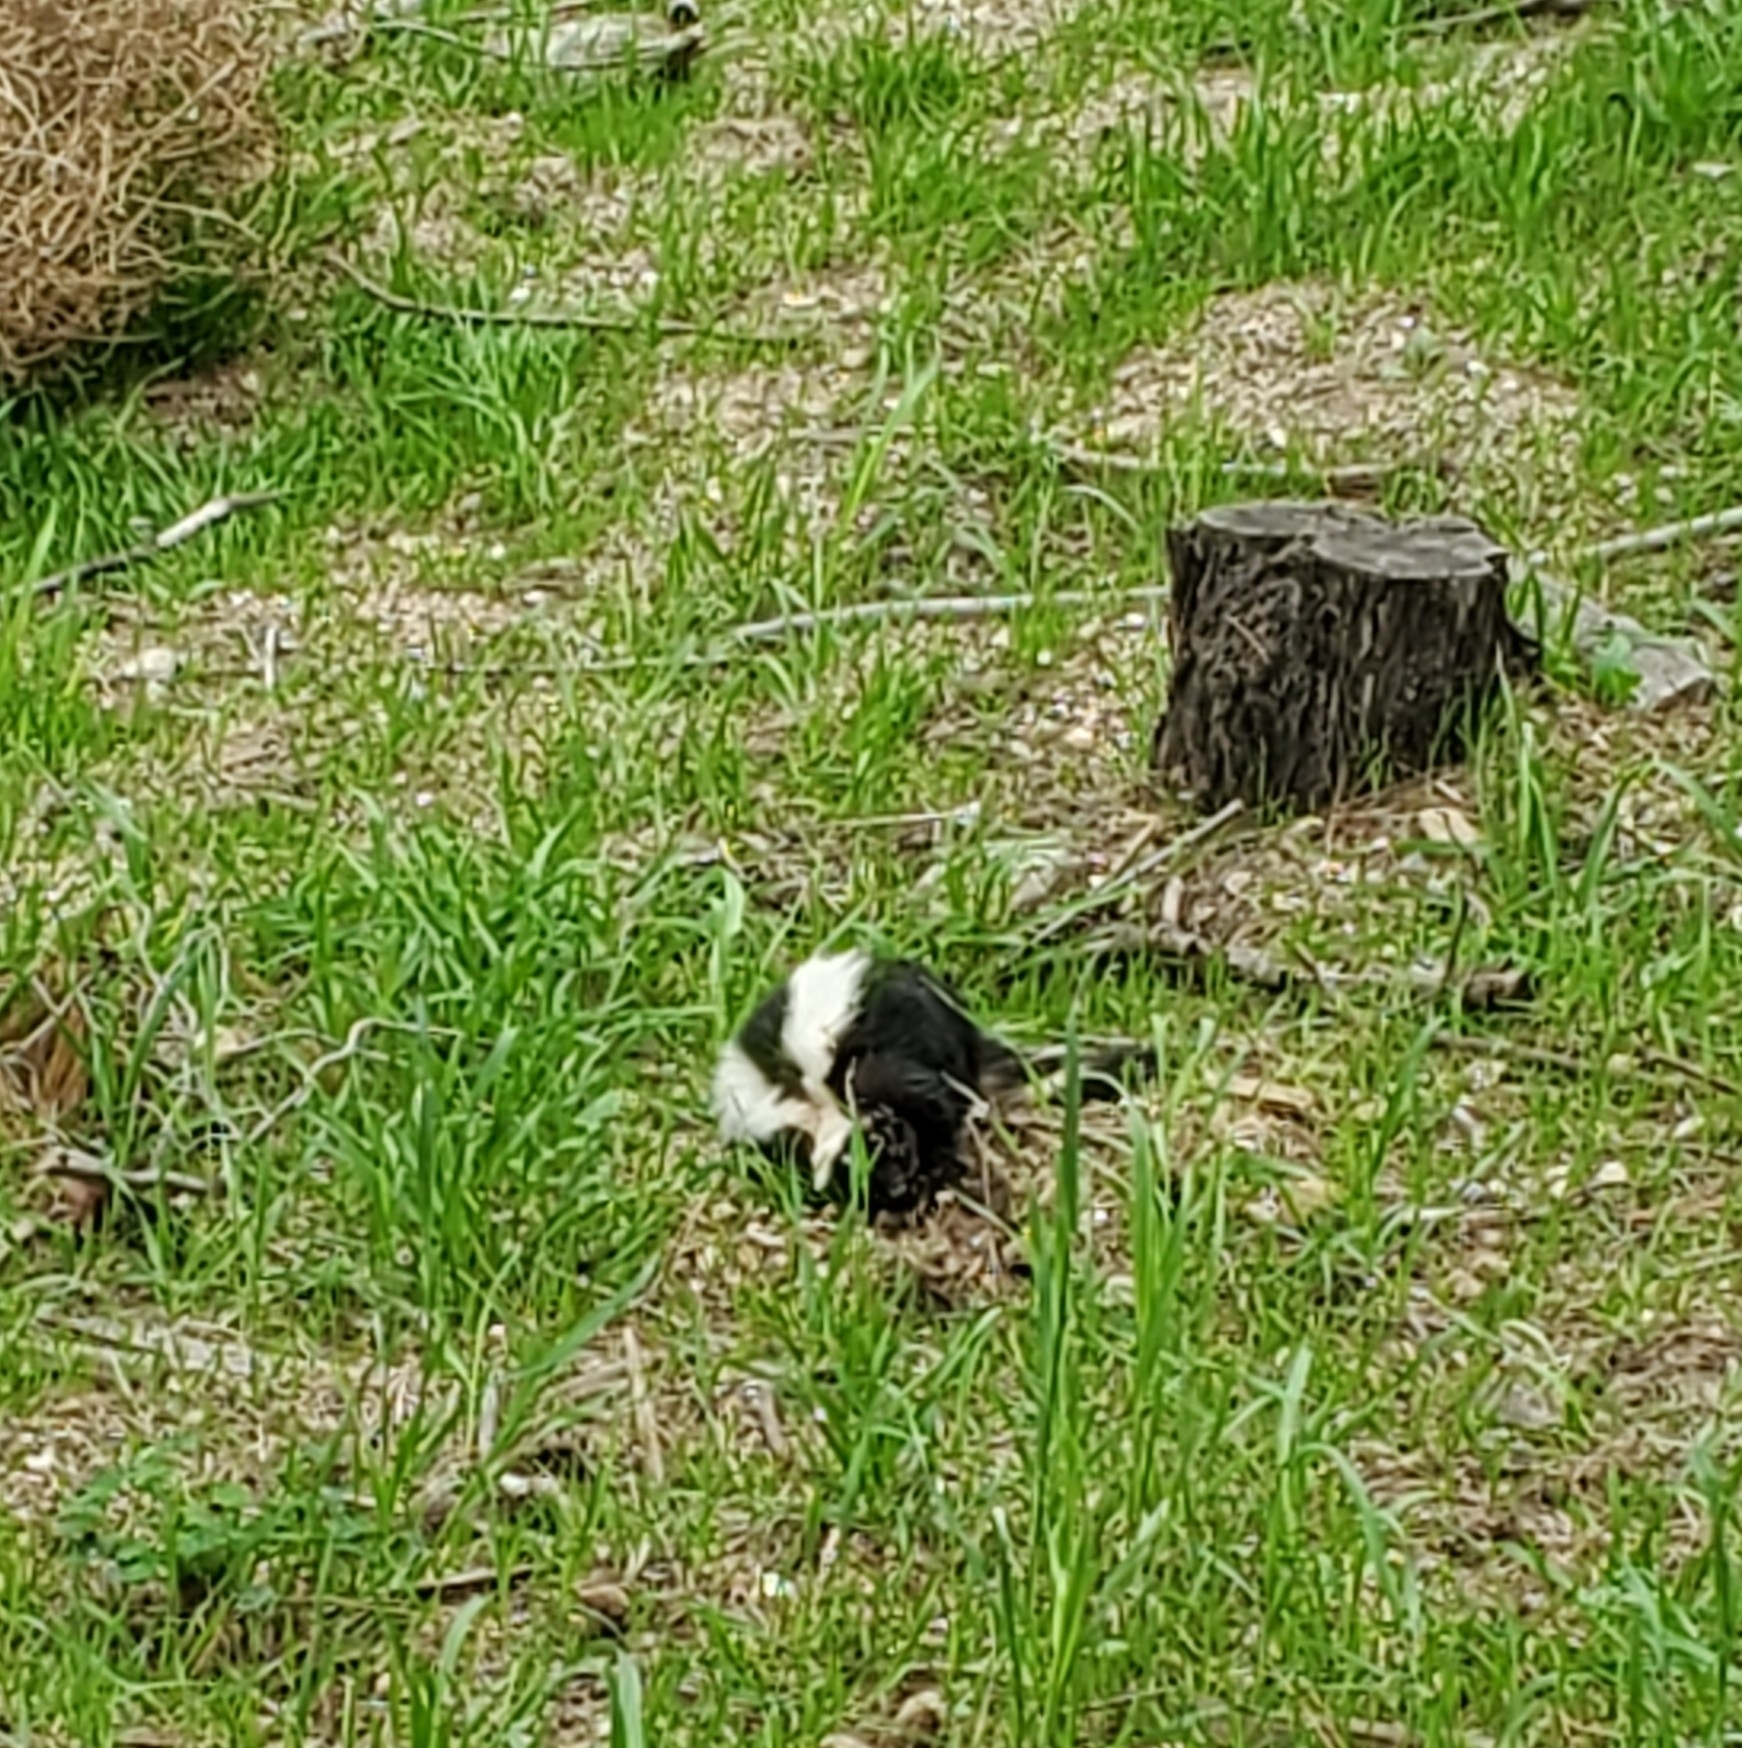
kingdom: Animalia
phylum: Chordata
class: Mammalia
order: Carnivora
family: Mephitidae
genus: Mephitis
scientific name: Mephitis mephitis
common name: Striped skunk
